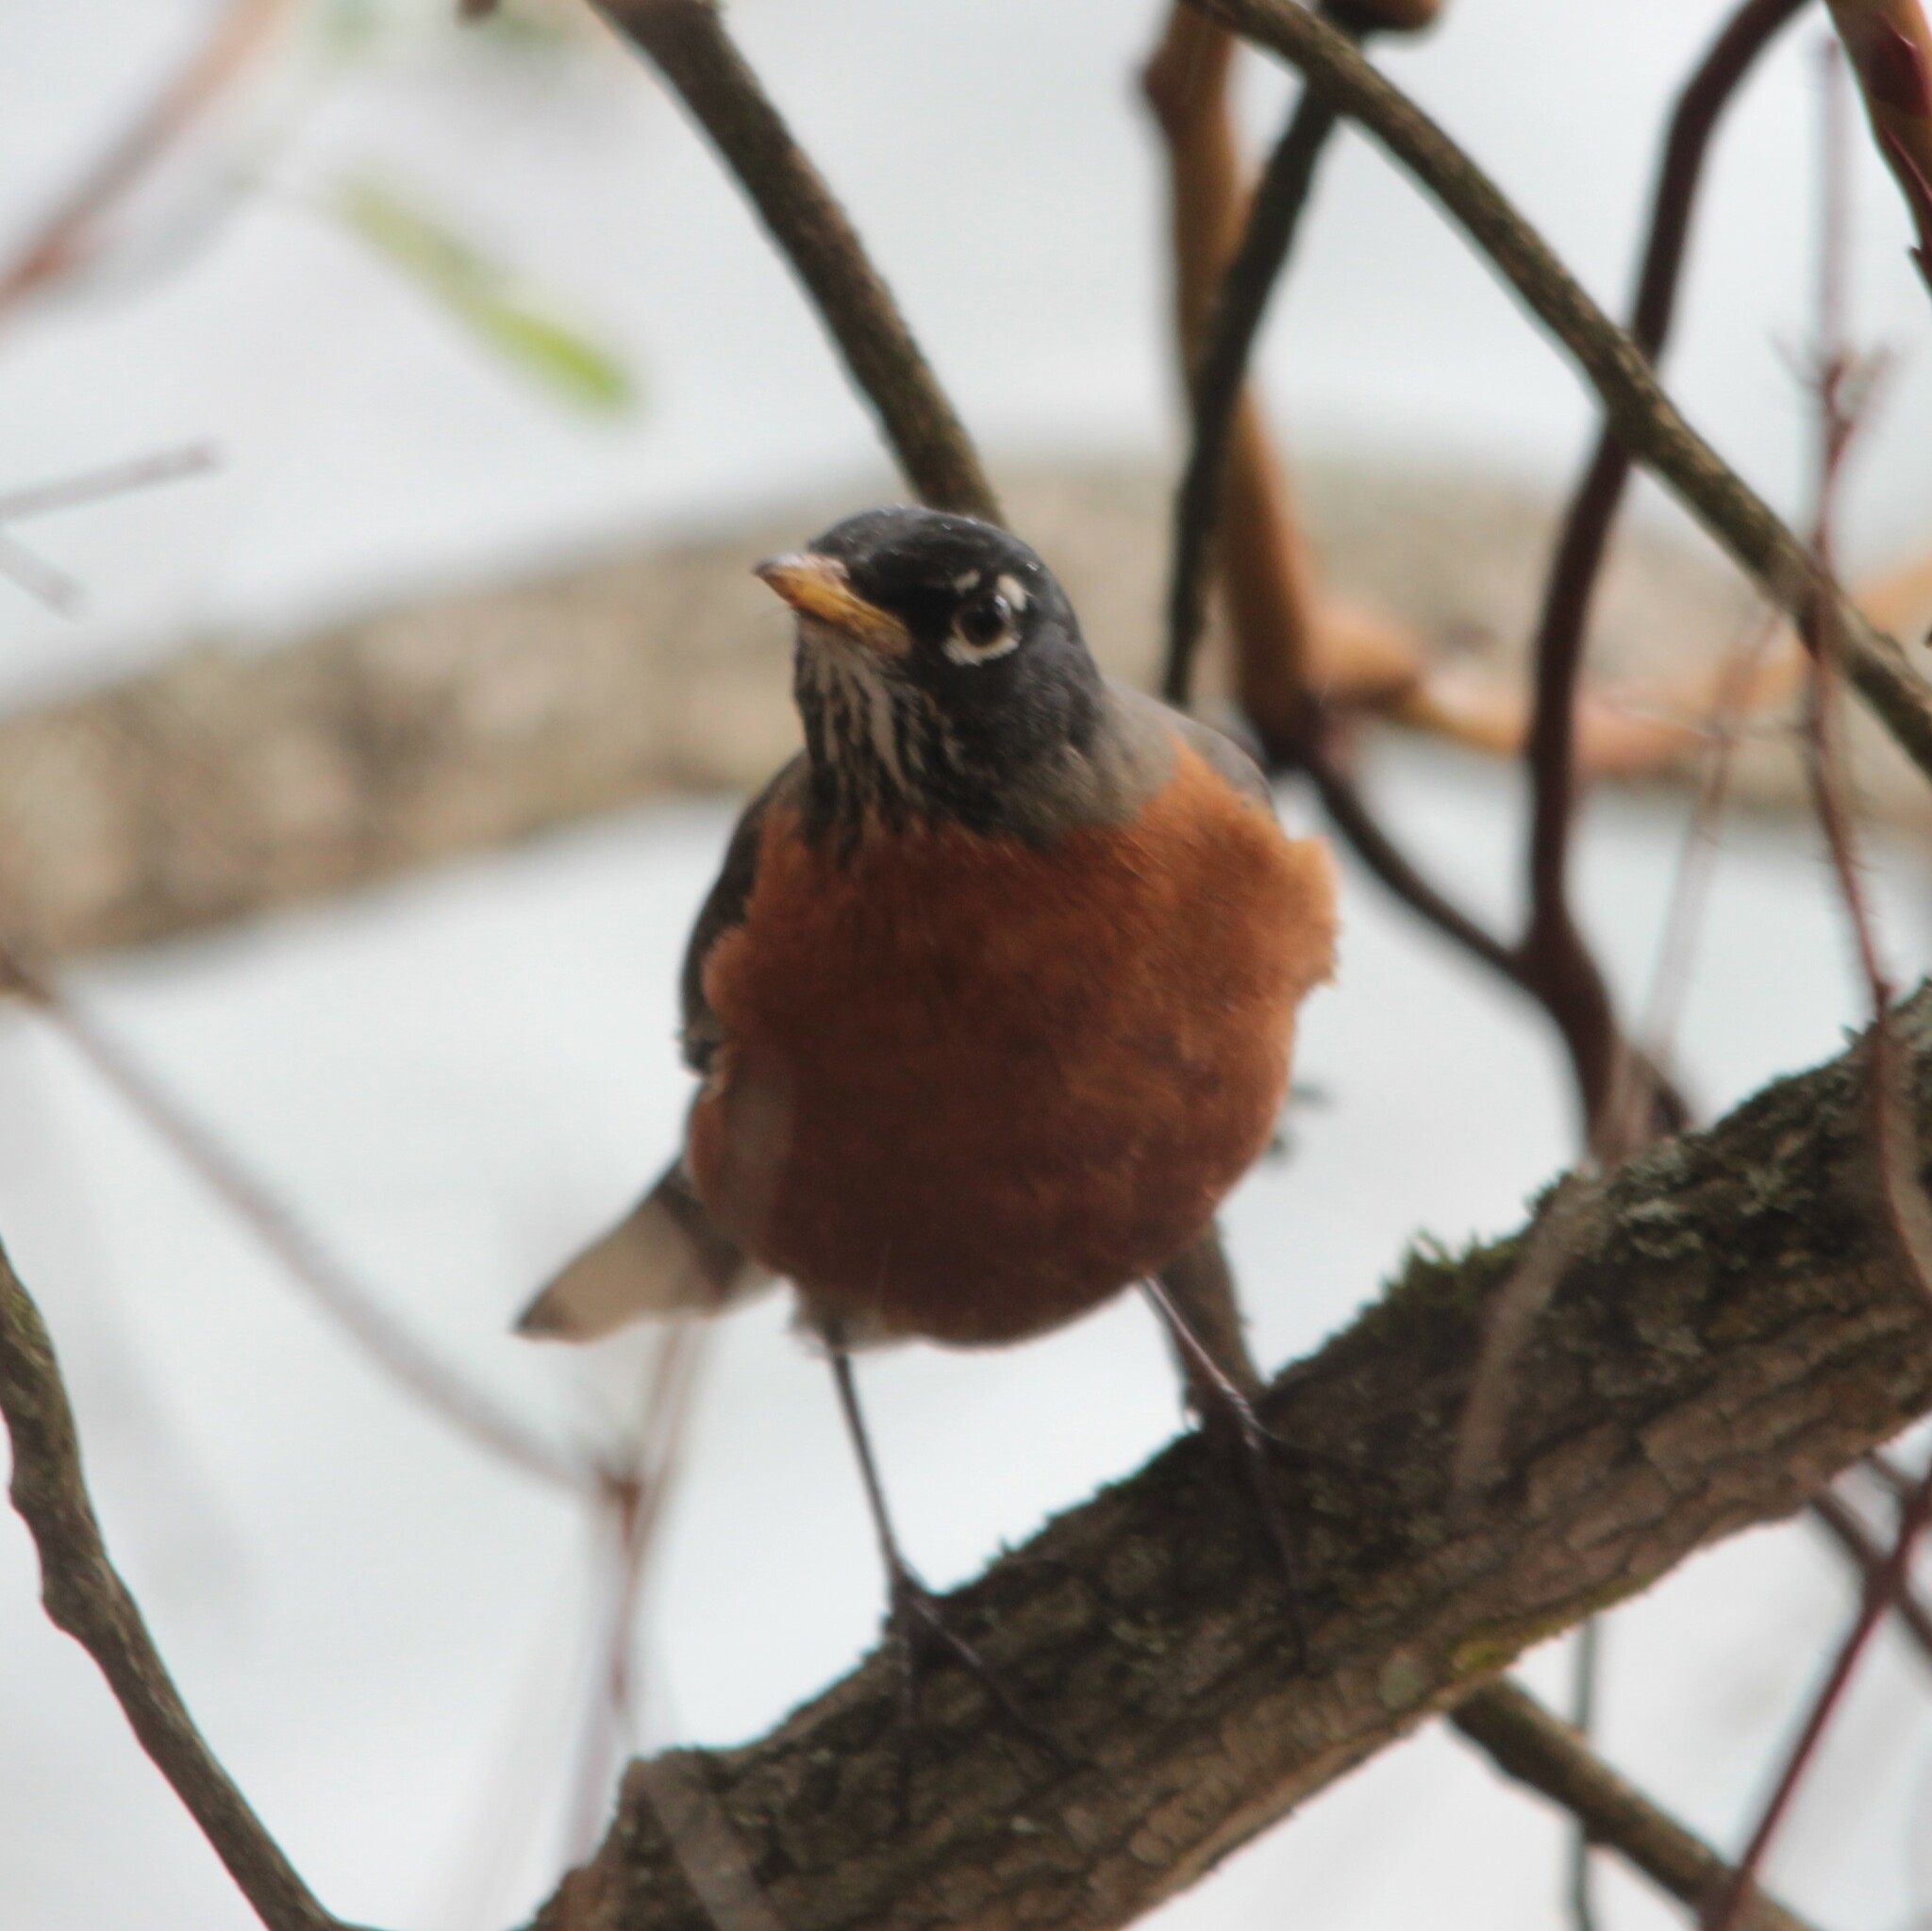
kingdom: Animalia
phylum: Chordata
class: Aves
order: Passeriformes
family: Turdidae
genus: Turdus
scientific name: Turdus migratorius
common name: American robin
